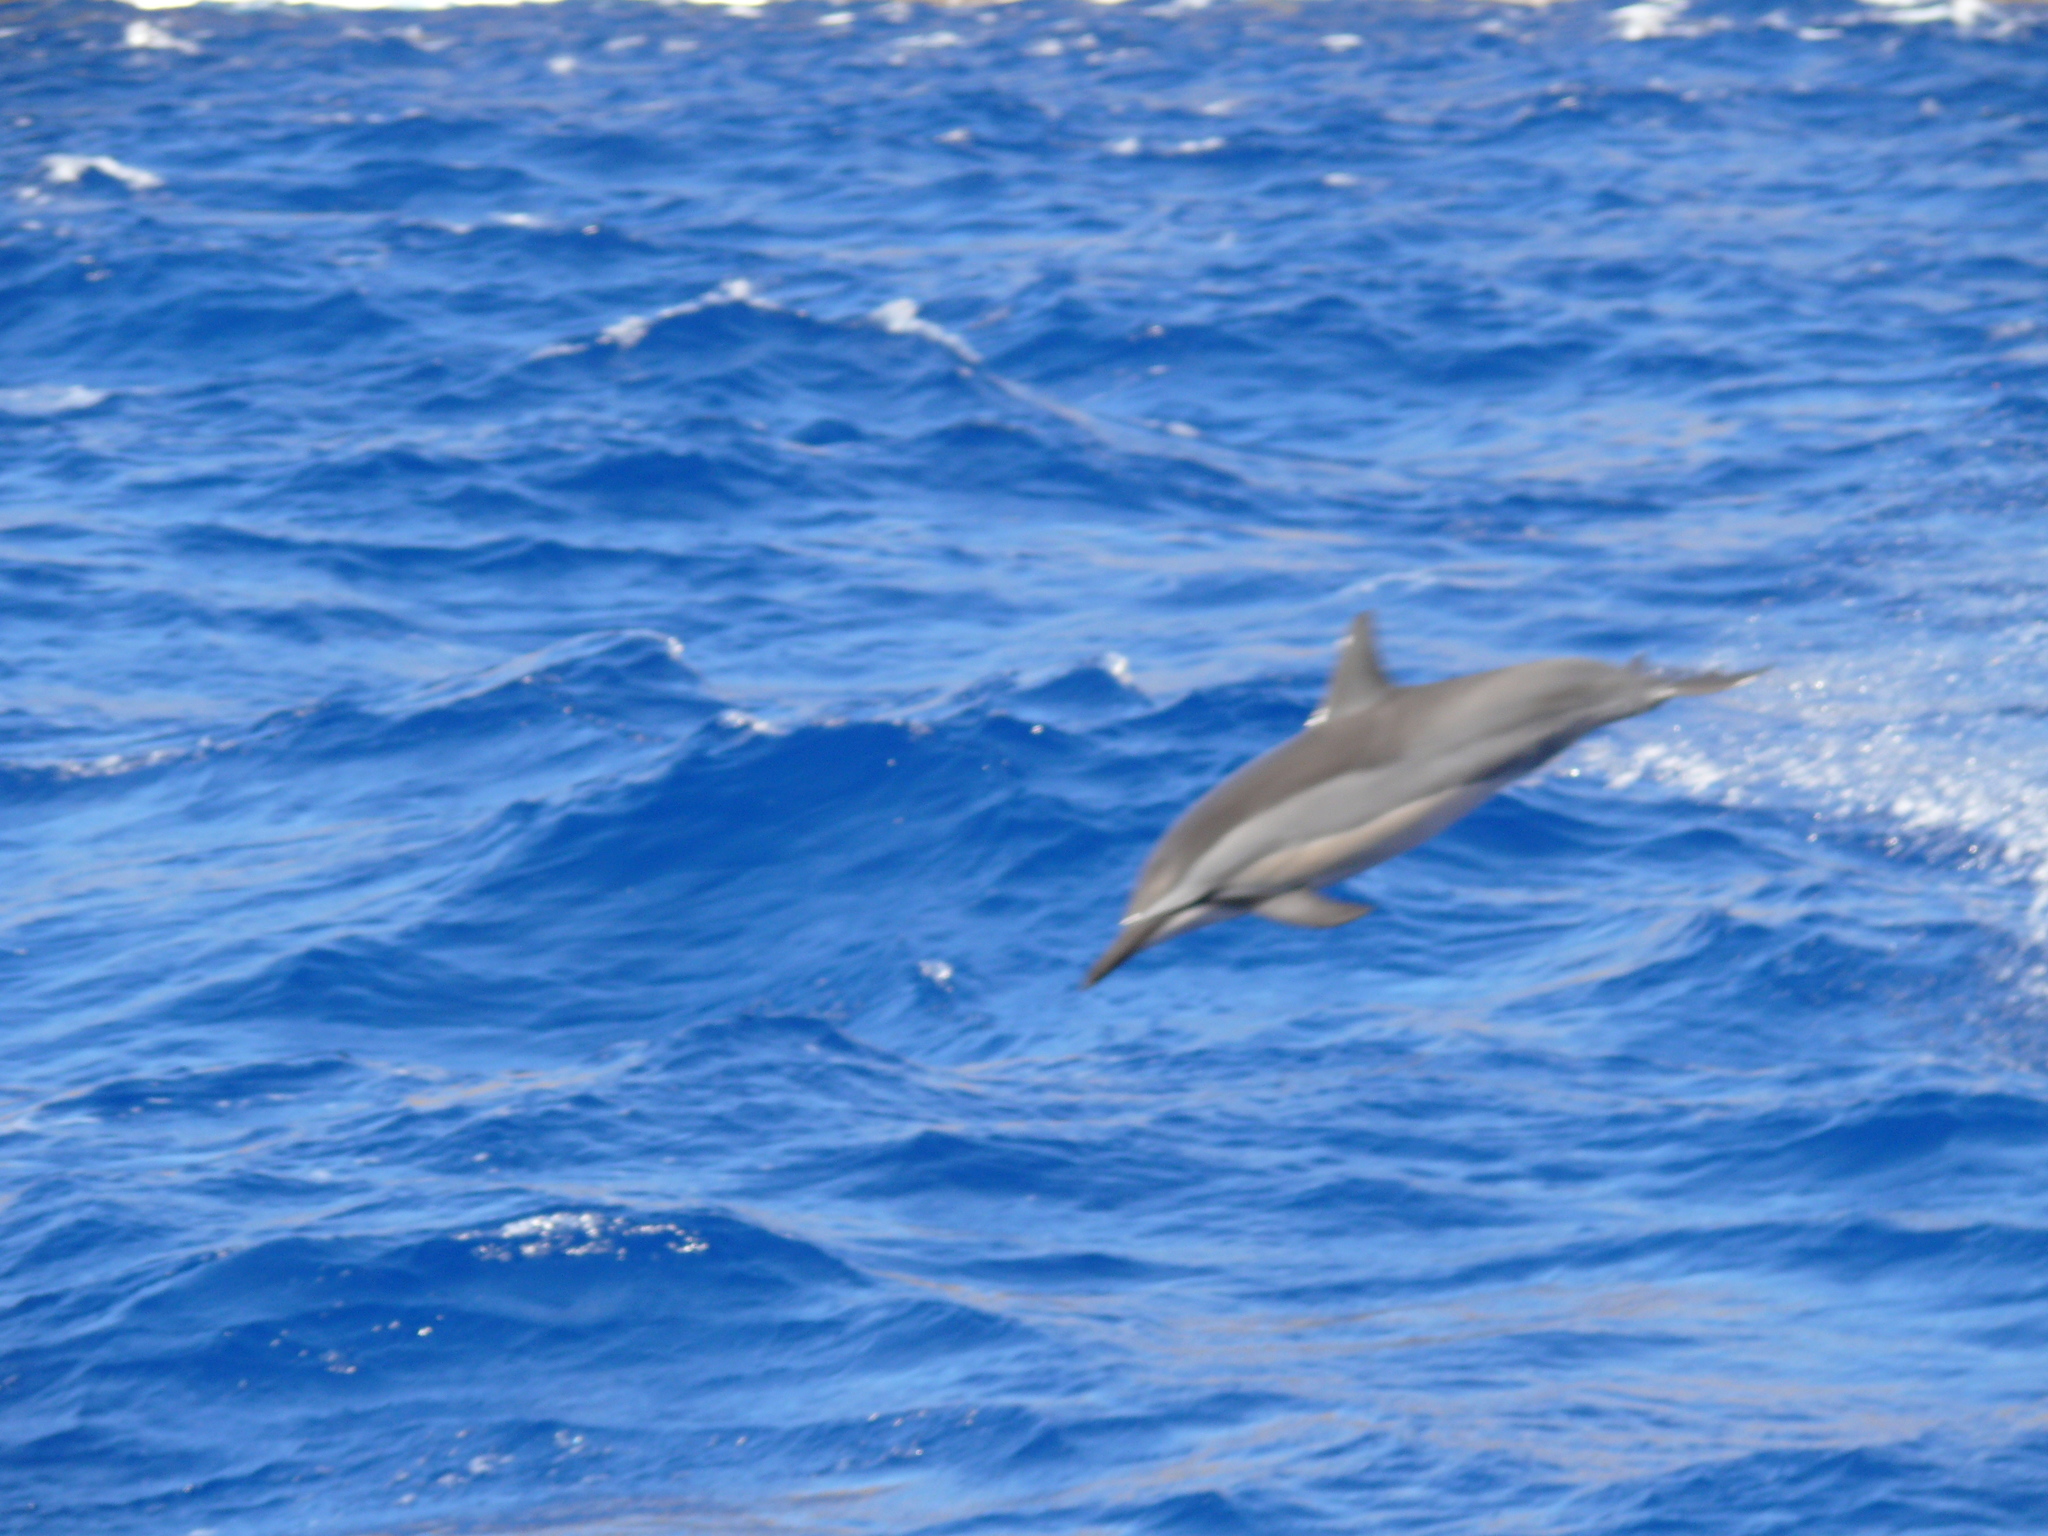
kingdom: Animalia
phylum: Chordata
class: Mammalia
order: Cetacea
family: Delphinidae
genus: Stenella
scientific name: Stenella longirostris
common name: Spinner dolphin
